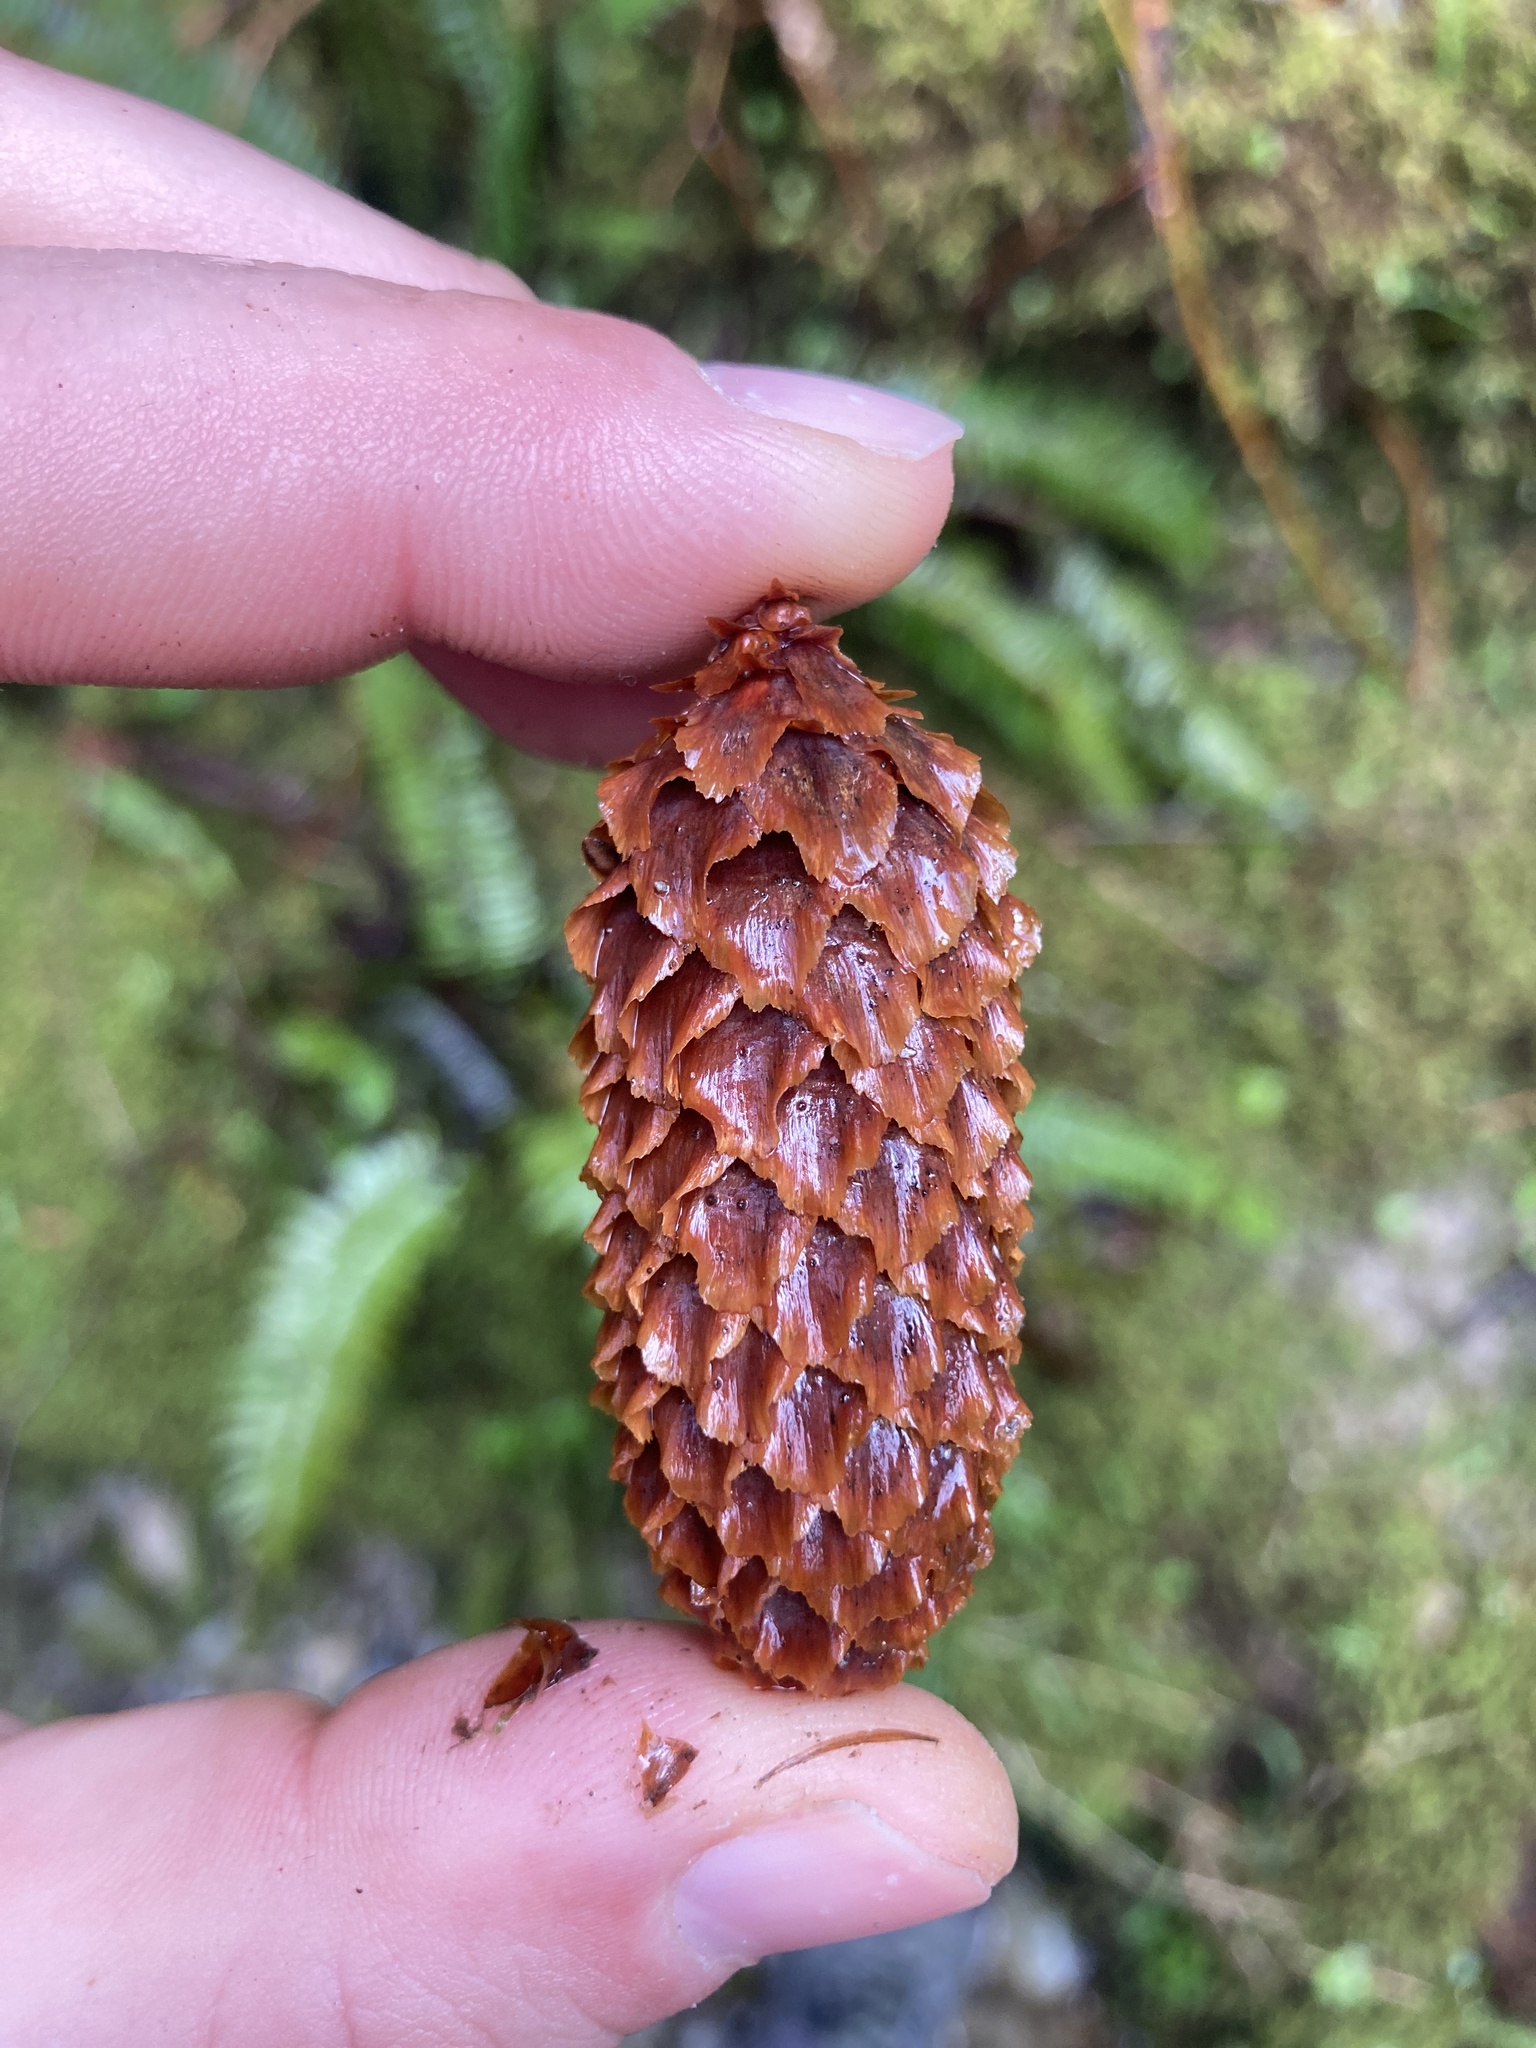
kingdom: Plantae
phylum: Tracheophyta
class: Pinopsida
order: Pinales
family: Pinaceae
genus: Picea
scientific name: Picea sitchensis
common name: Sitka spruce
